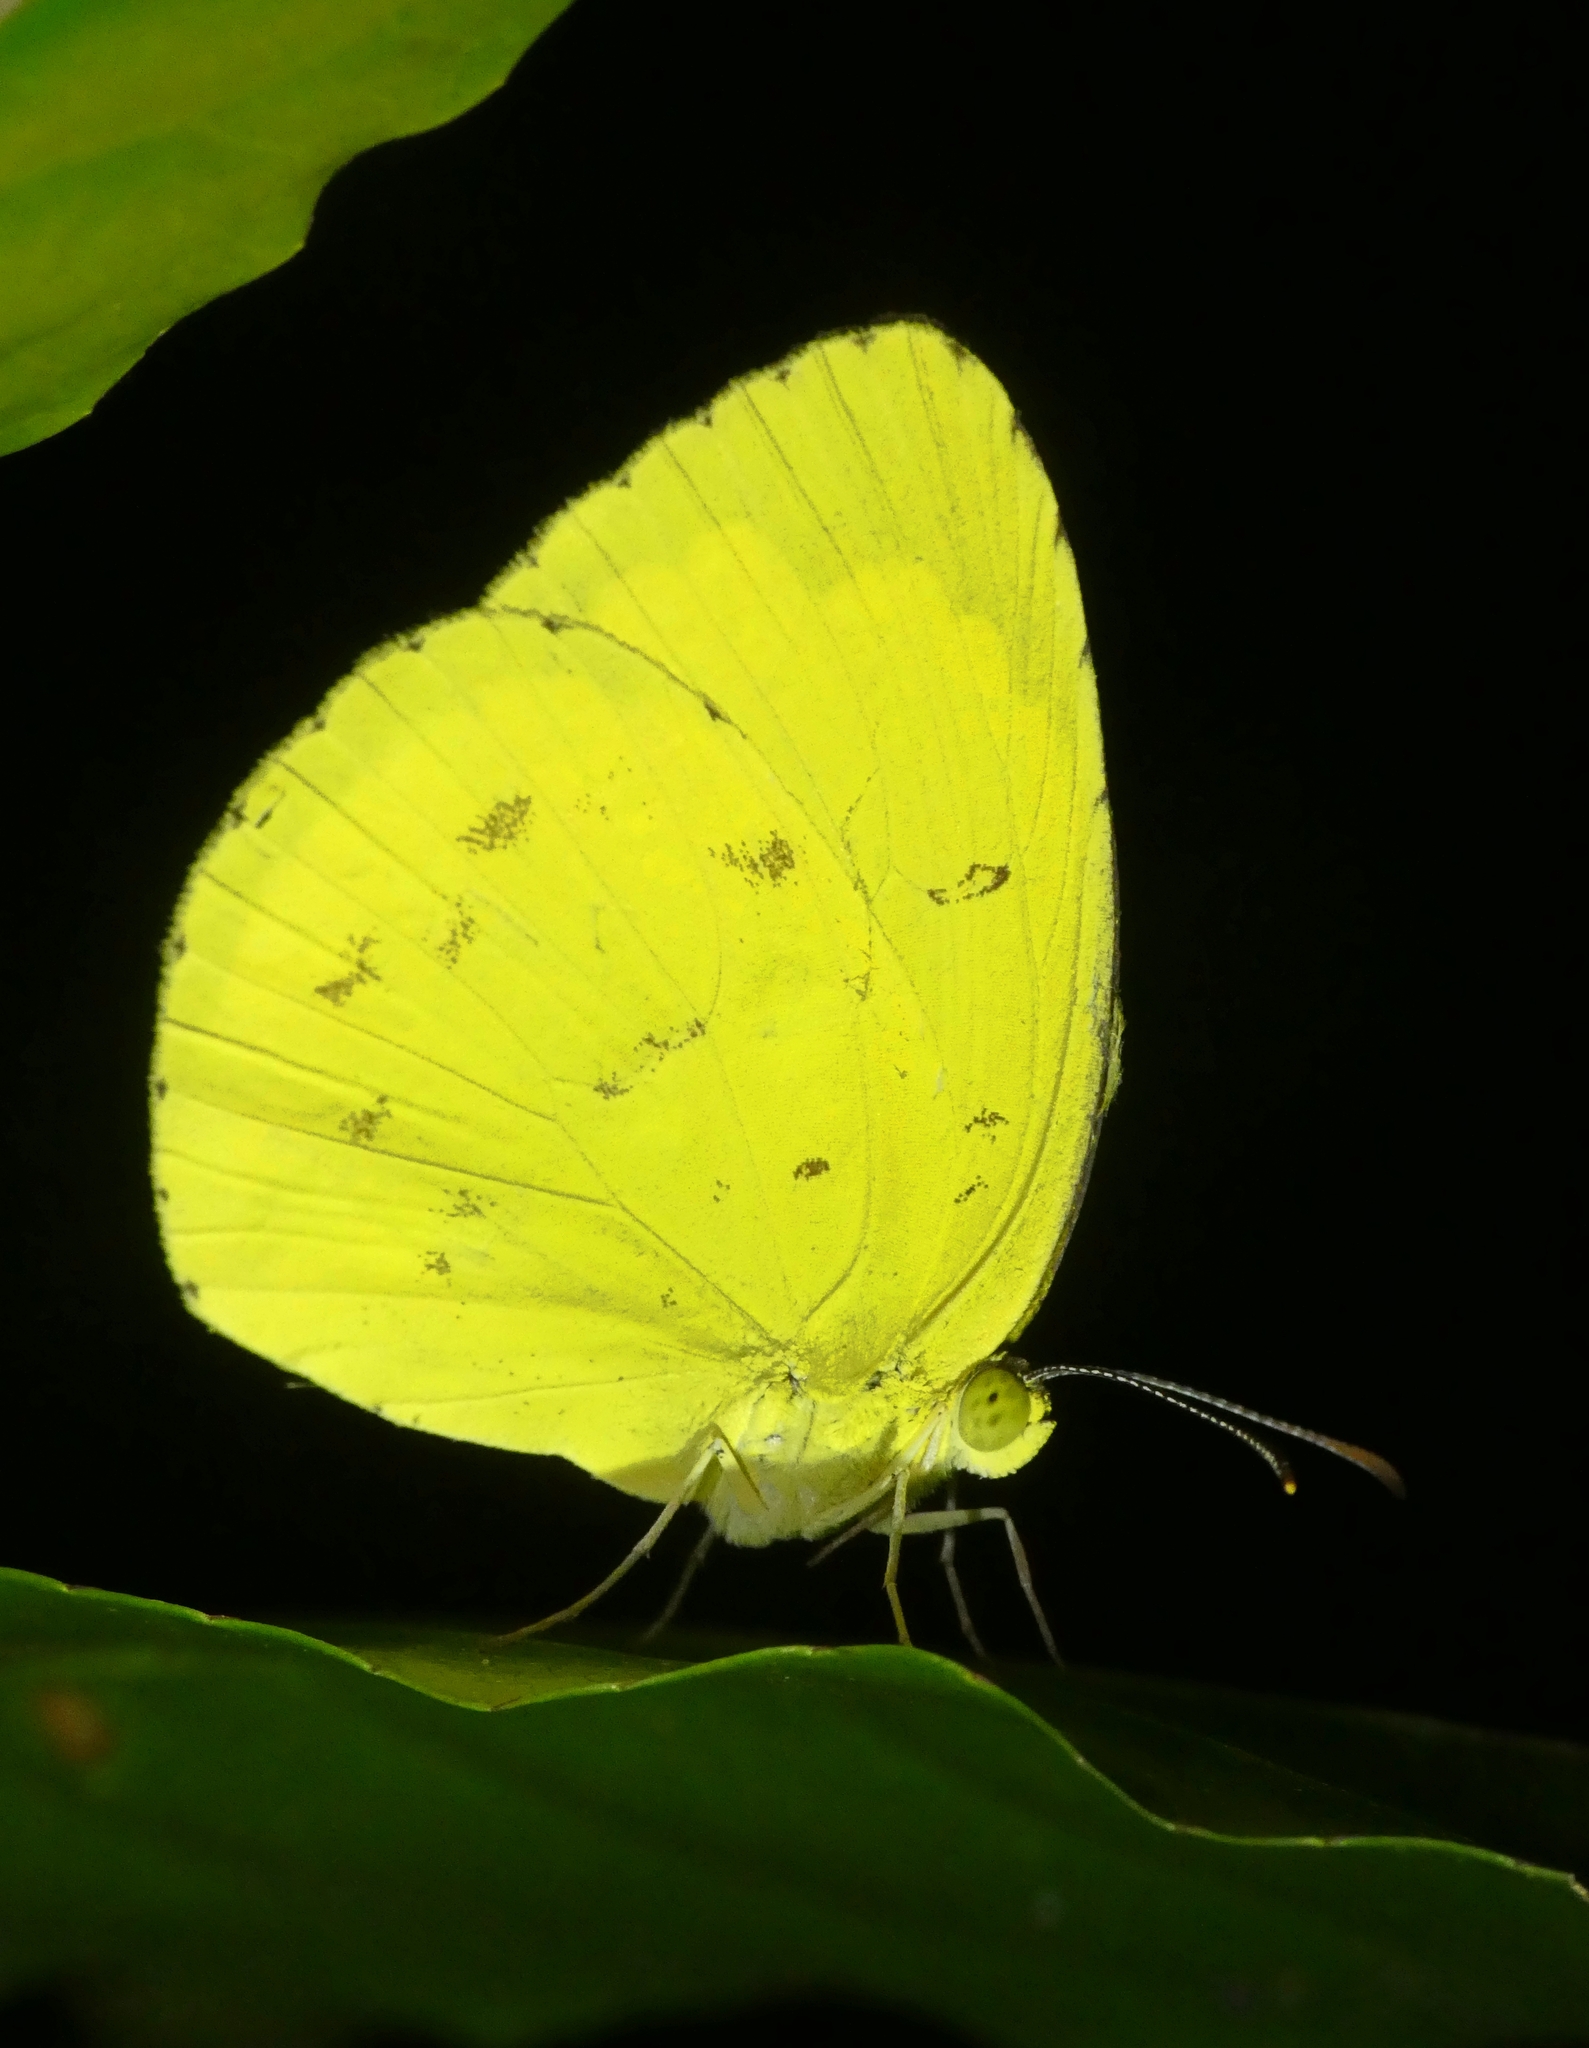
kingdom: Animalia
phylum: Arthropoda
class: Insecta
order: Lepidoptera
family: Pieridae
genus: Eurema
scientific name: Eurema hecabe
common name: Pale grass yellow
